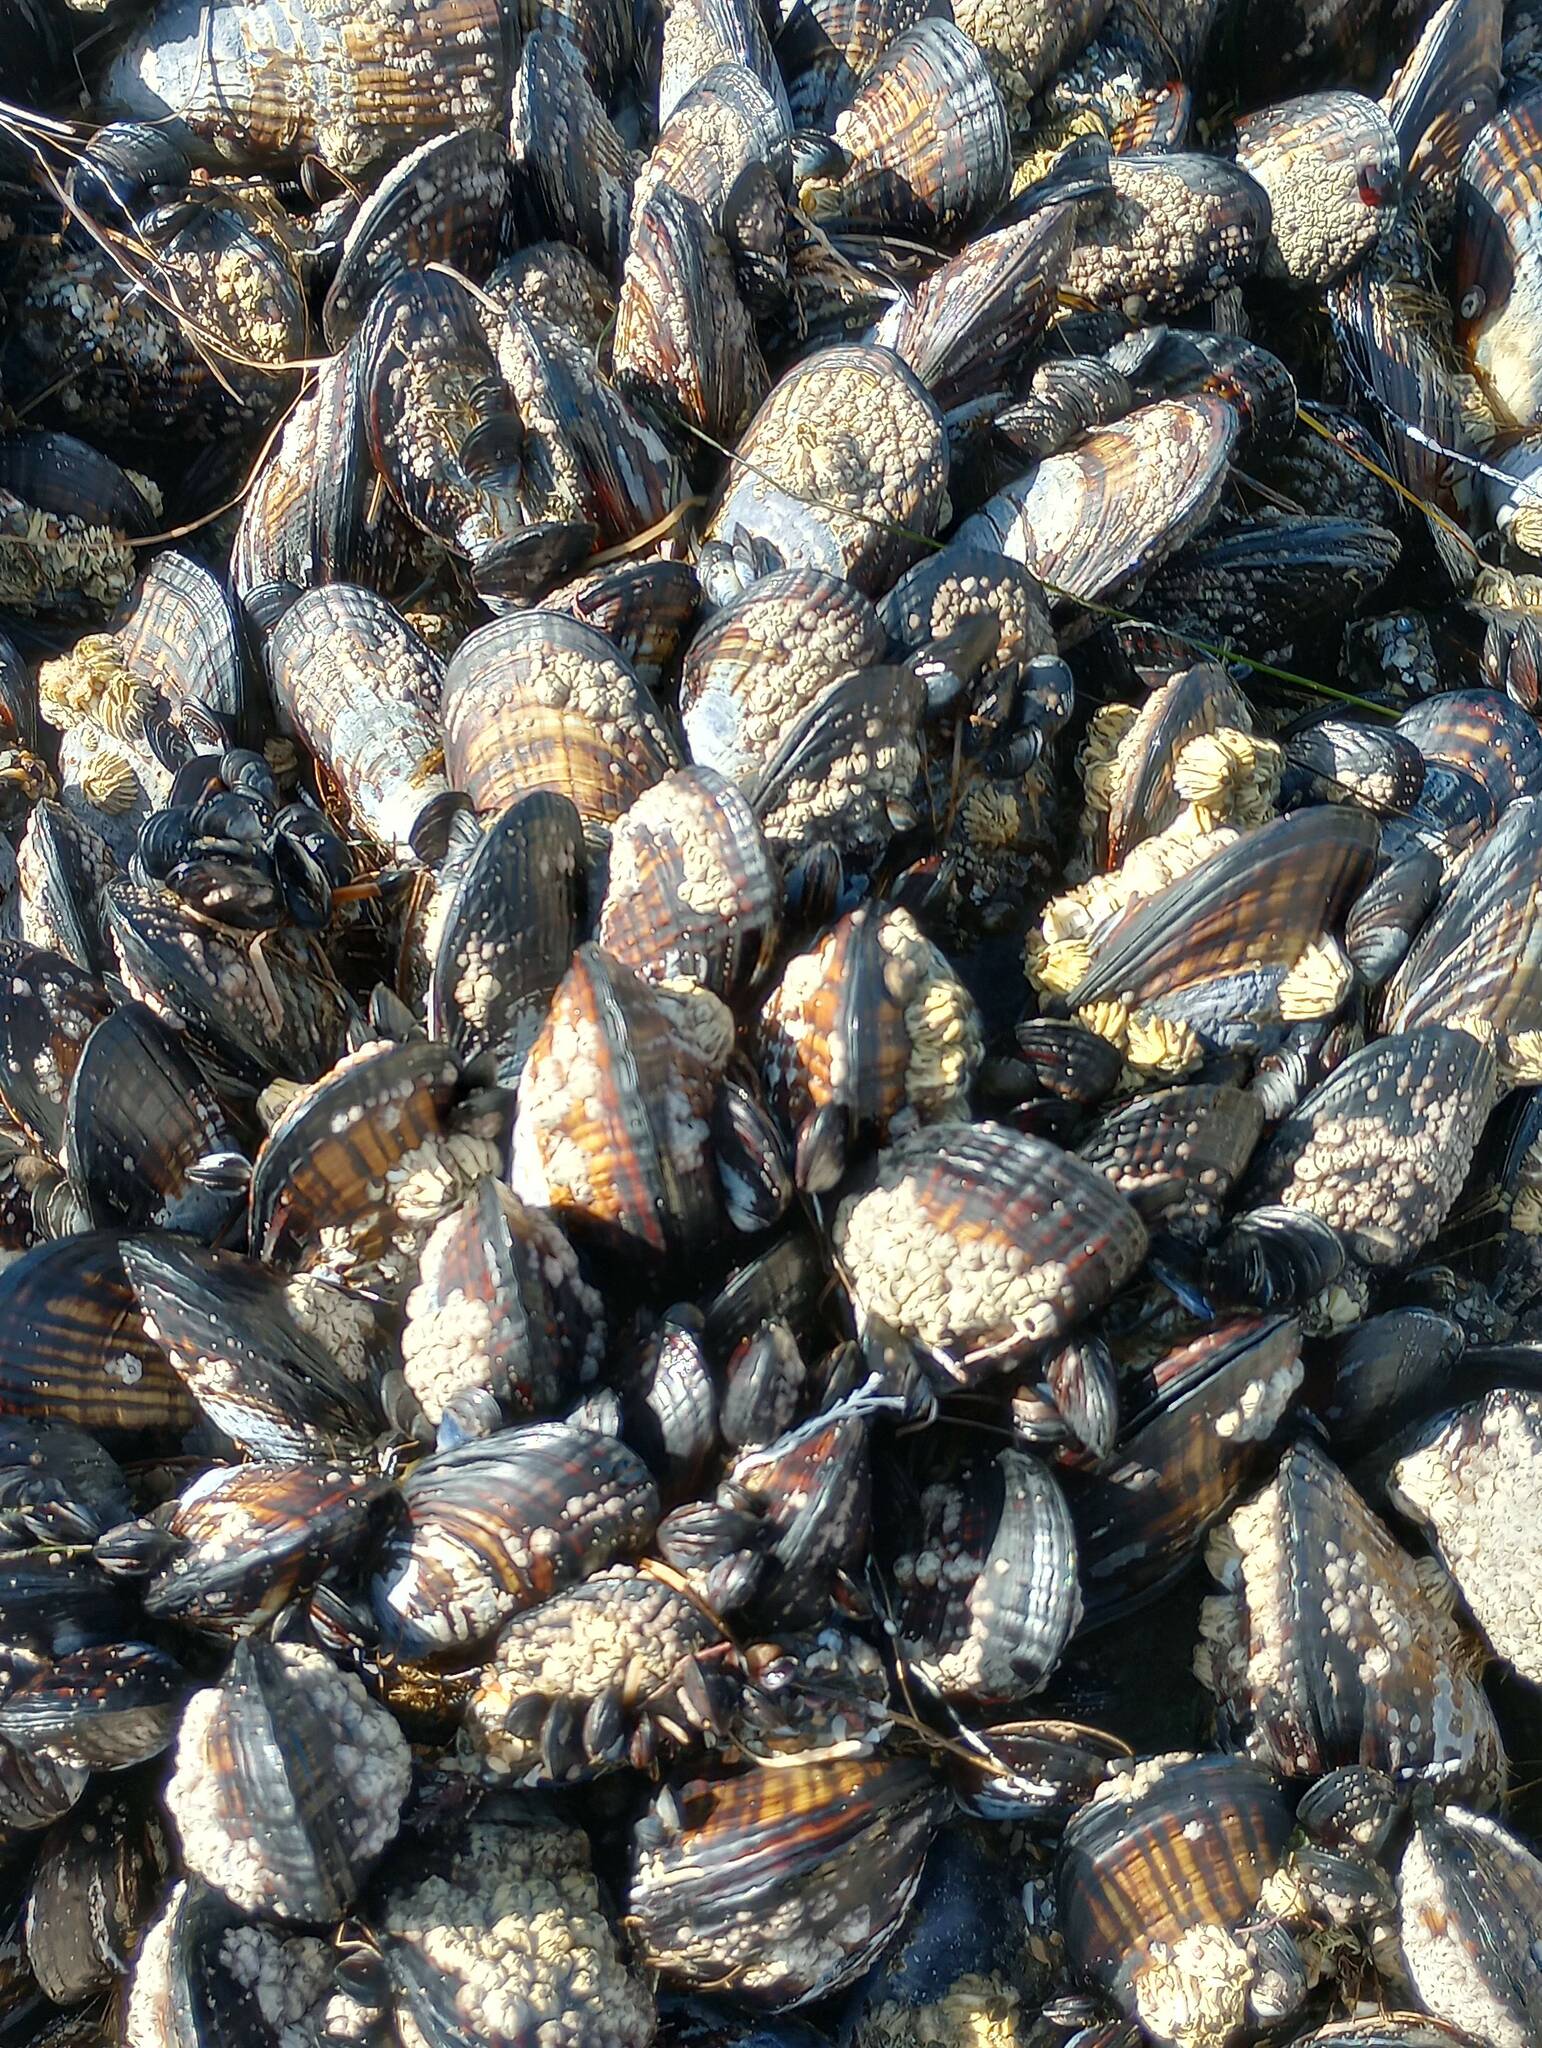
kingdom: Animalia
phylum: Mollusca
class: Bivalvia
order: Mytilida
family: Mytilidae
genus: Mytilus
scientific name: Mytilus californianus
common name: California mussel
